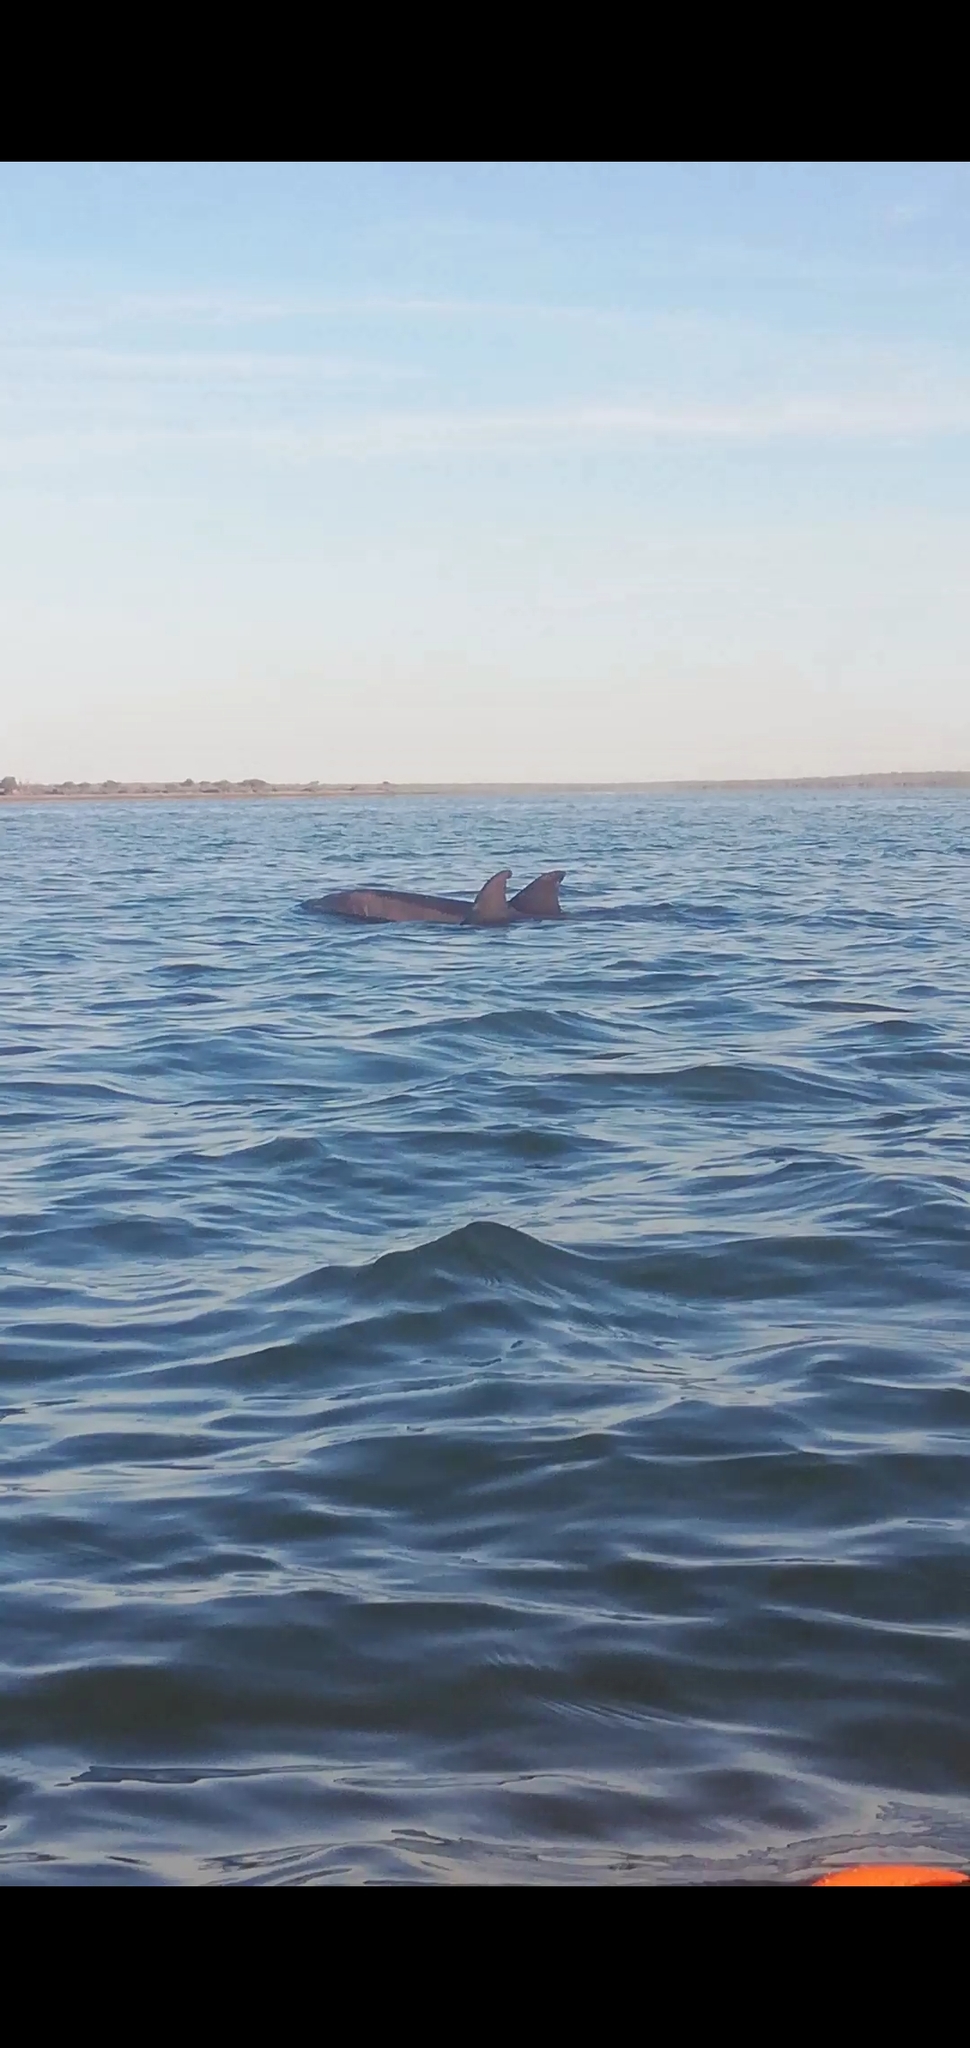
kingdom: Animalia
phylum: Chordata
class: Mammalia
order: Cetacea
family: Delphinidae
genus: Tursiops
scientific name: Tursiops truncatus
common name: Bottlenose dolphin
